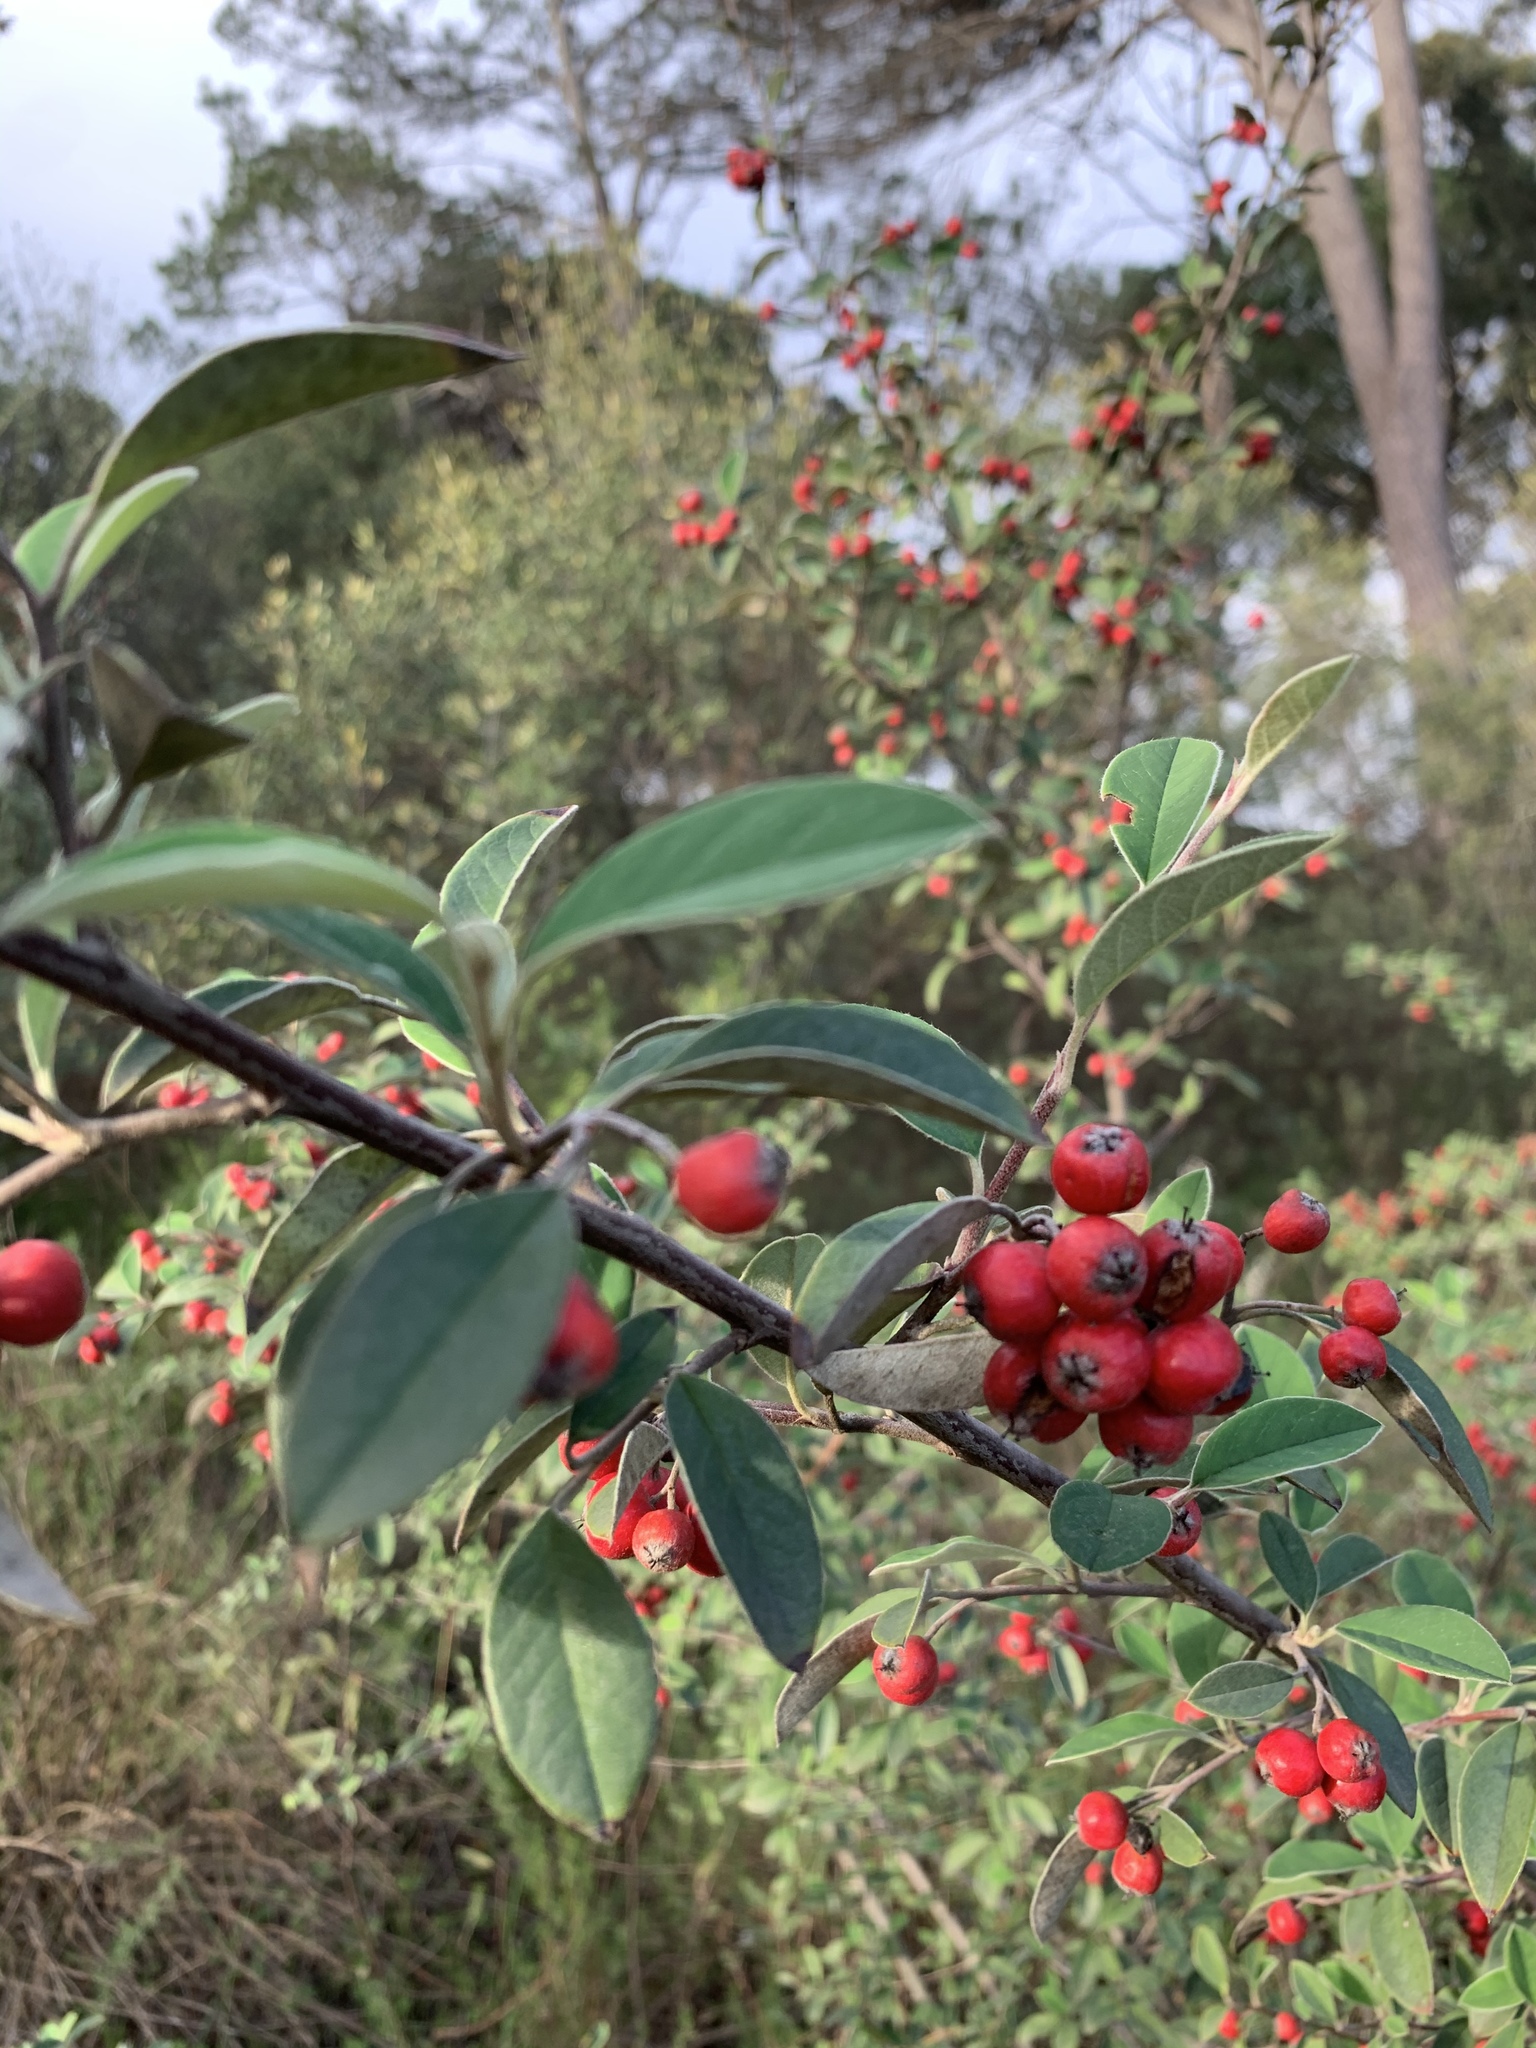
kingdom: Plantae
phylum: Tracheophyta
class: Magnoliopsida
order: Rosales
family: Rosaceae
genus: Cotoneaster
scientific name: Cotoneaster pannosus
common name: Silverleaf cotoneaster
